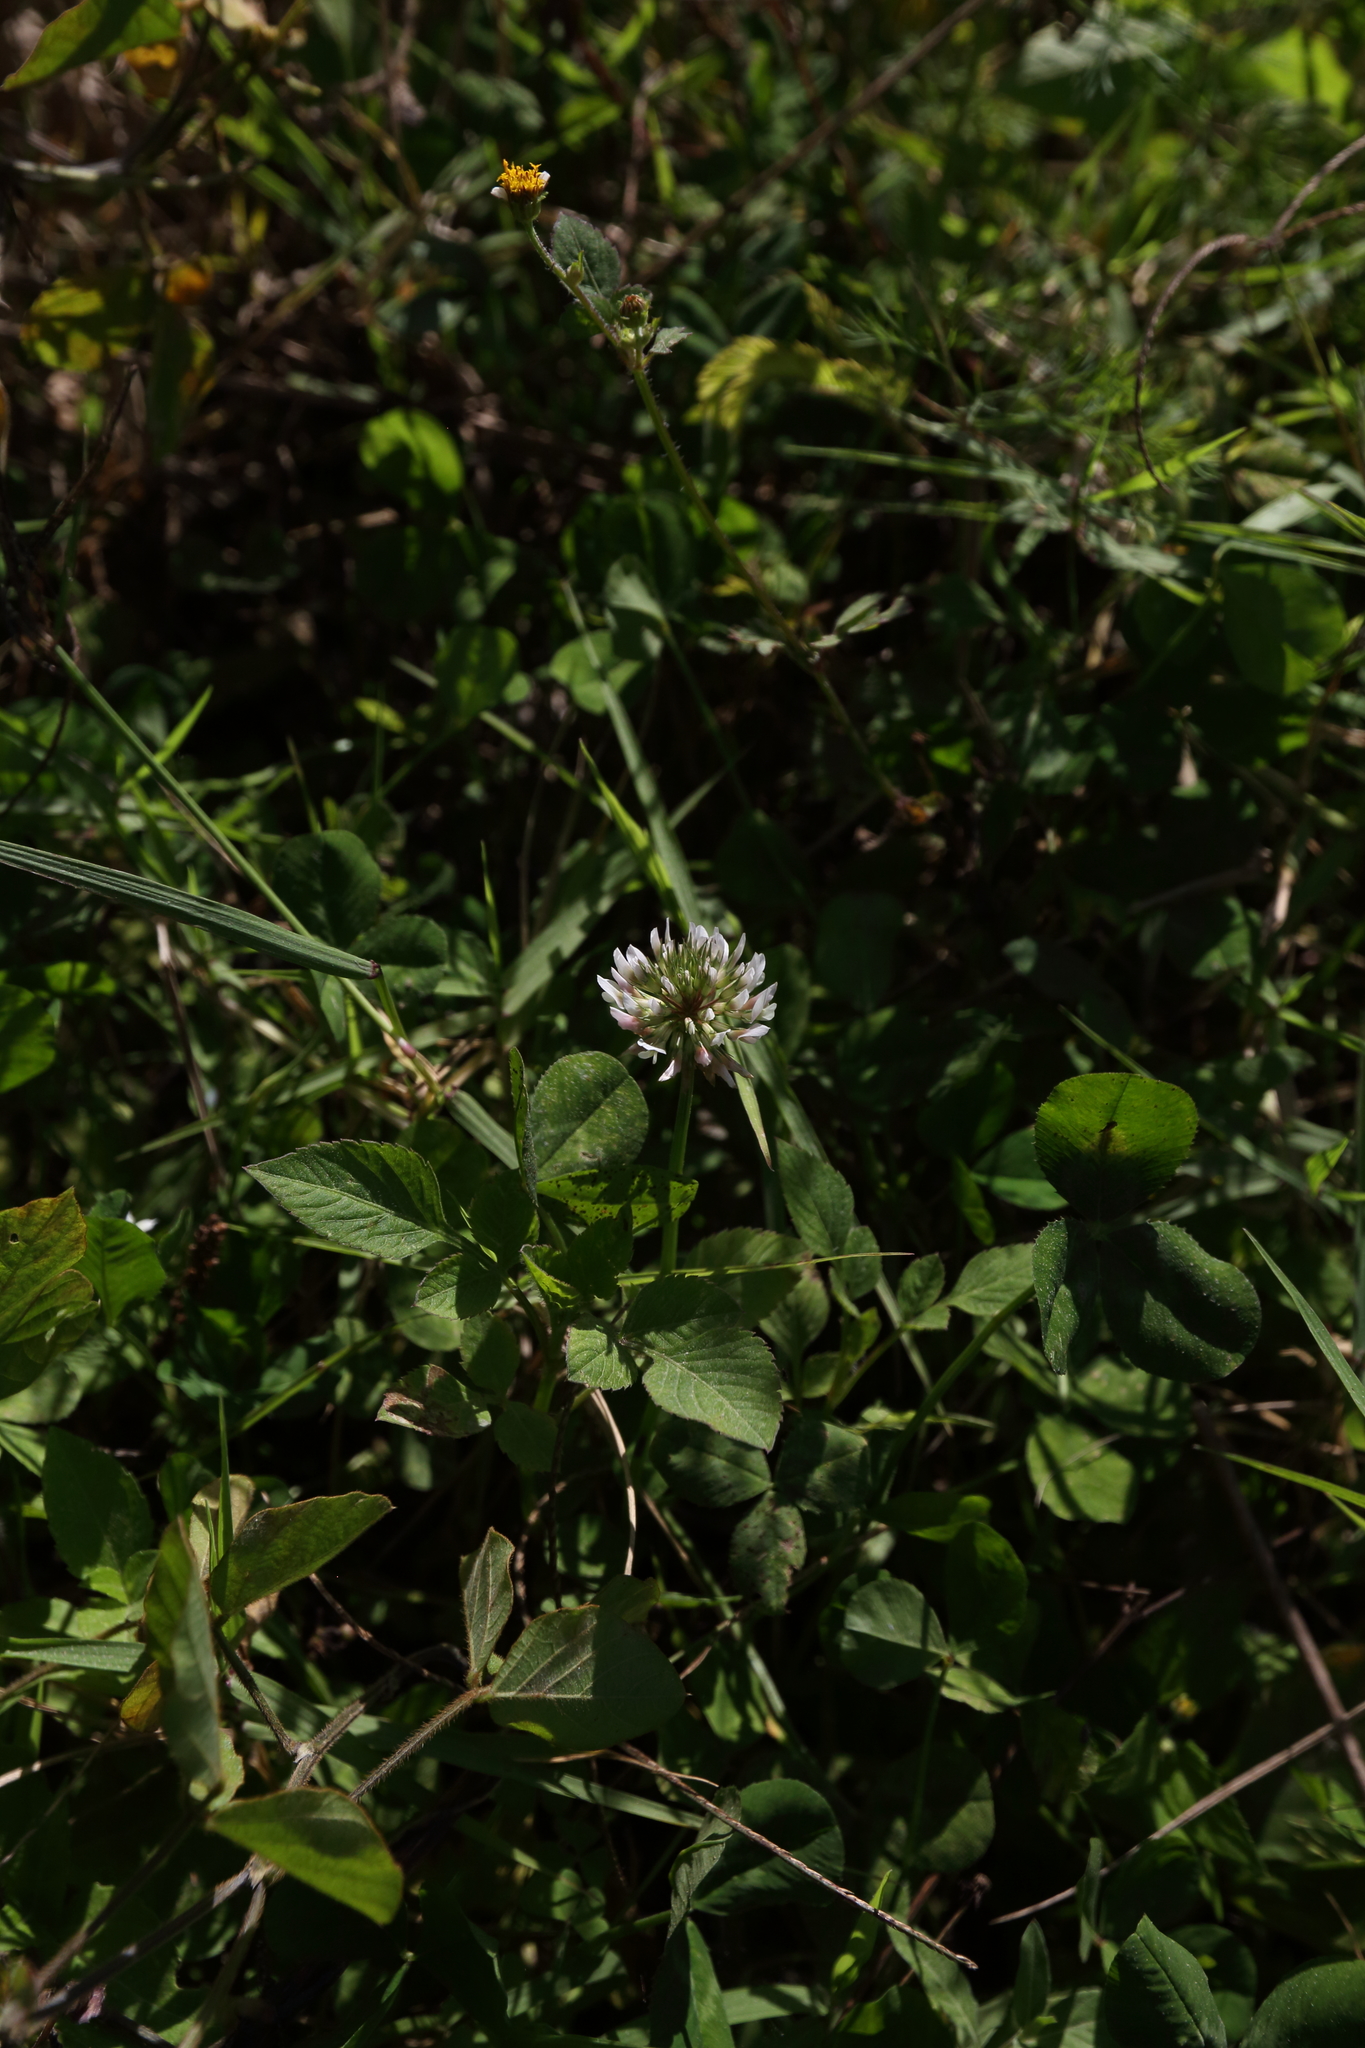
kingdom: Plantae
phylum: Tracheophyta
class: Magnoliopsida
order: Fabales
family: Fabaceae
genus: Trifolium
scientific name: Trifolium repens
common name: White clover
